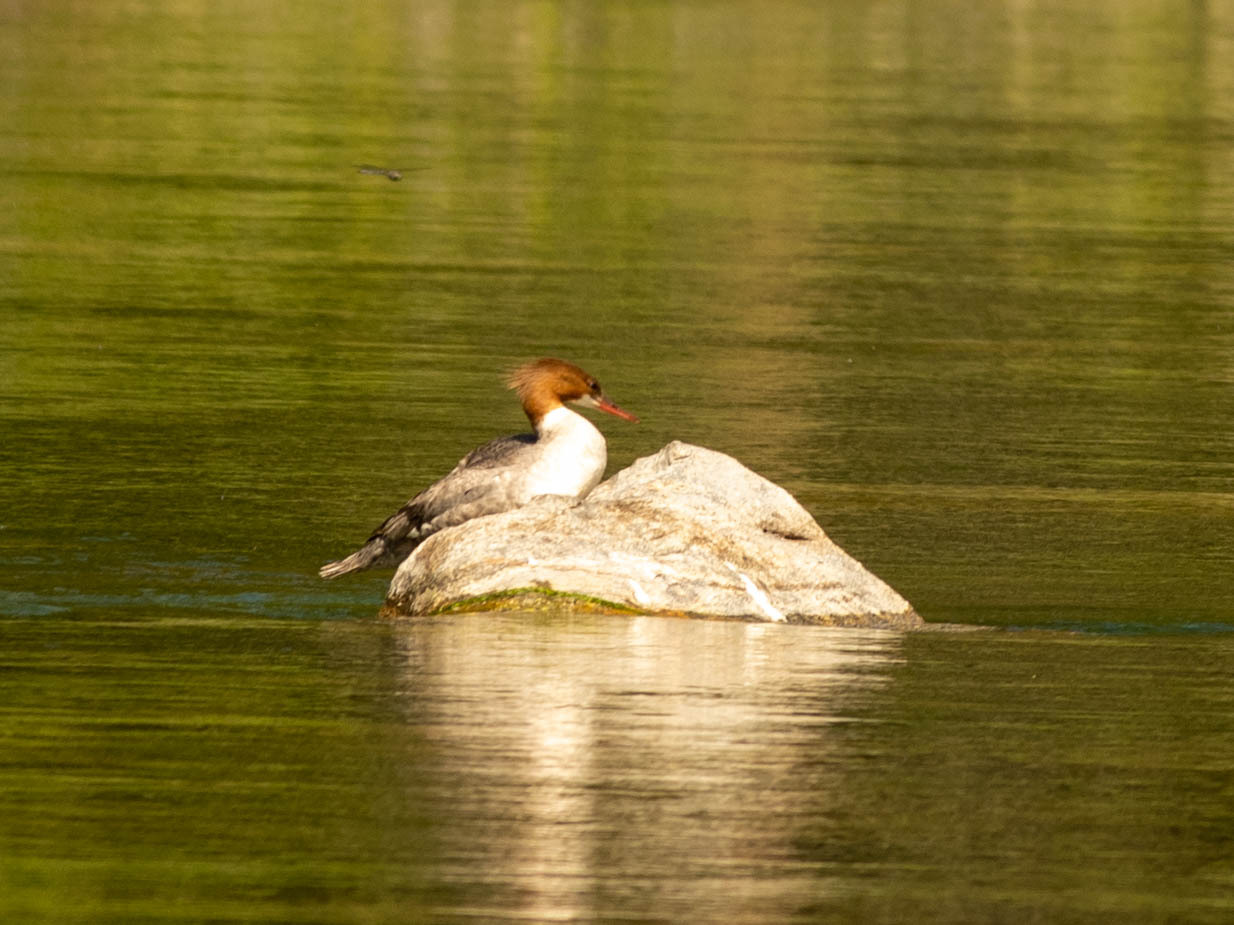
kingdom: Animalia
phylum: Chordata
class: Aves
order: Anseriformes
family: Anatidae
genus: Mergus
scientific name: Mergus merganser
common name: Common merganser
